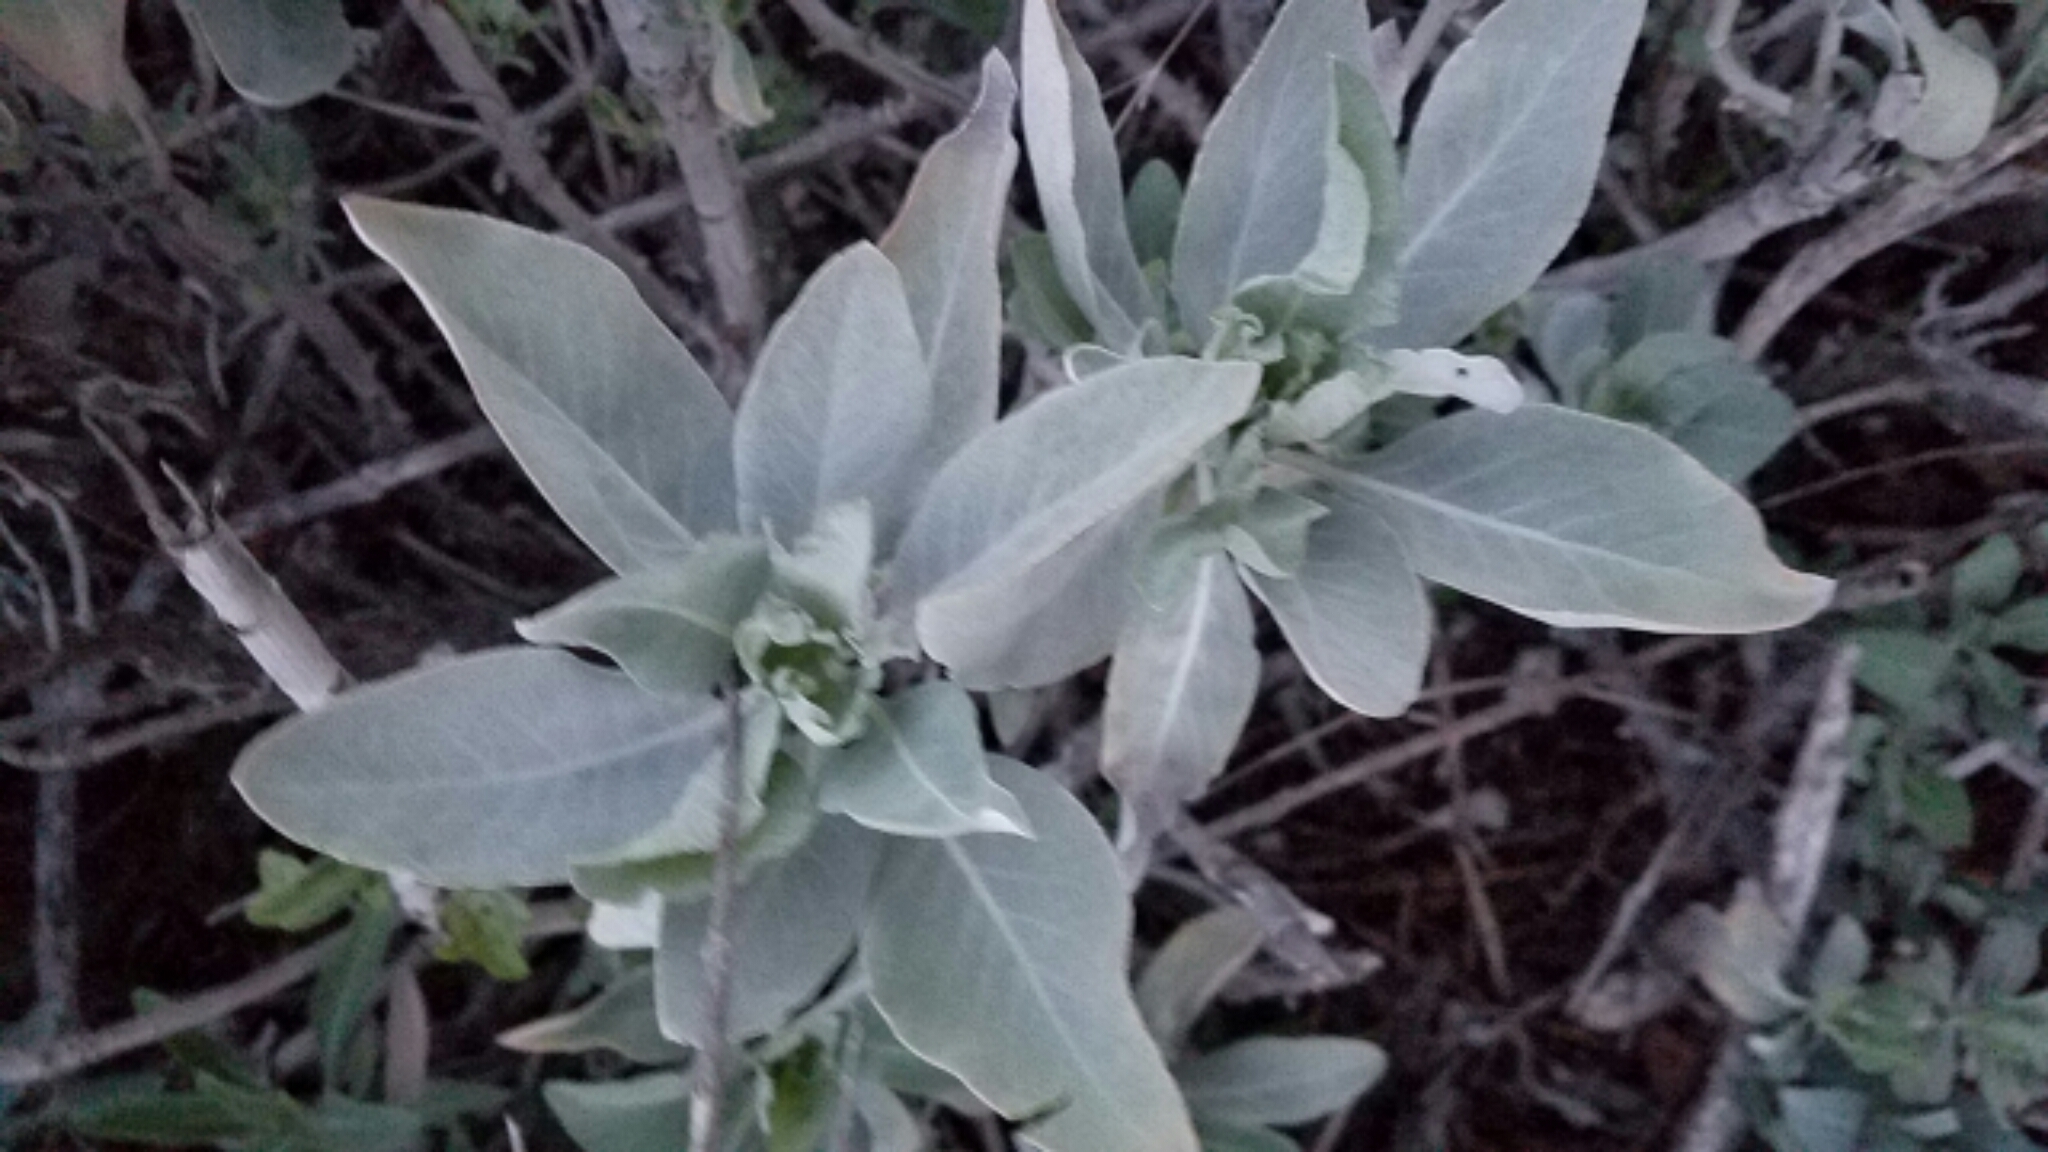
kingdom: Plantae
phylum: Tracheophyta
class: Magnoliopsida
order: Lamiales
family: Lamiaceae
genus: Salvia
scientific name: Salvia apiana
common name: White sage
